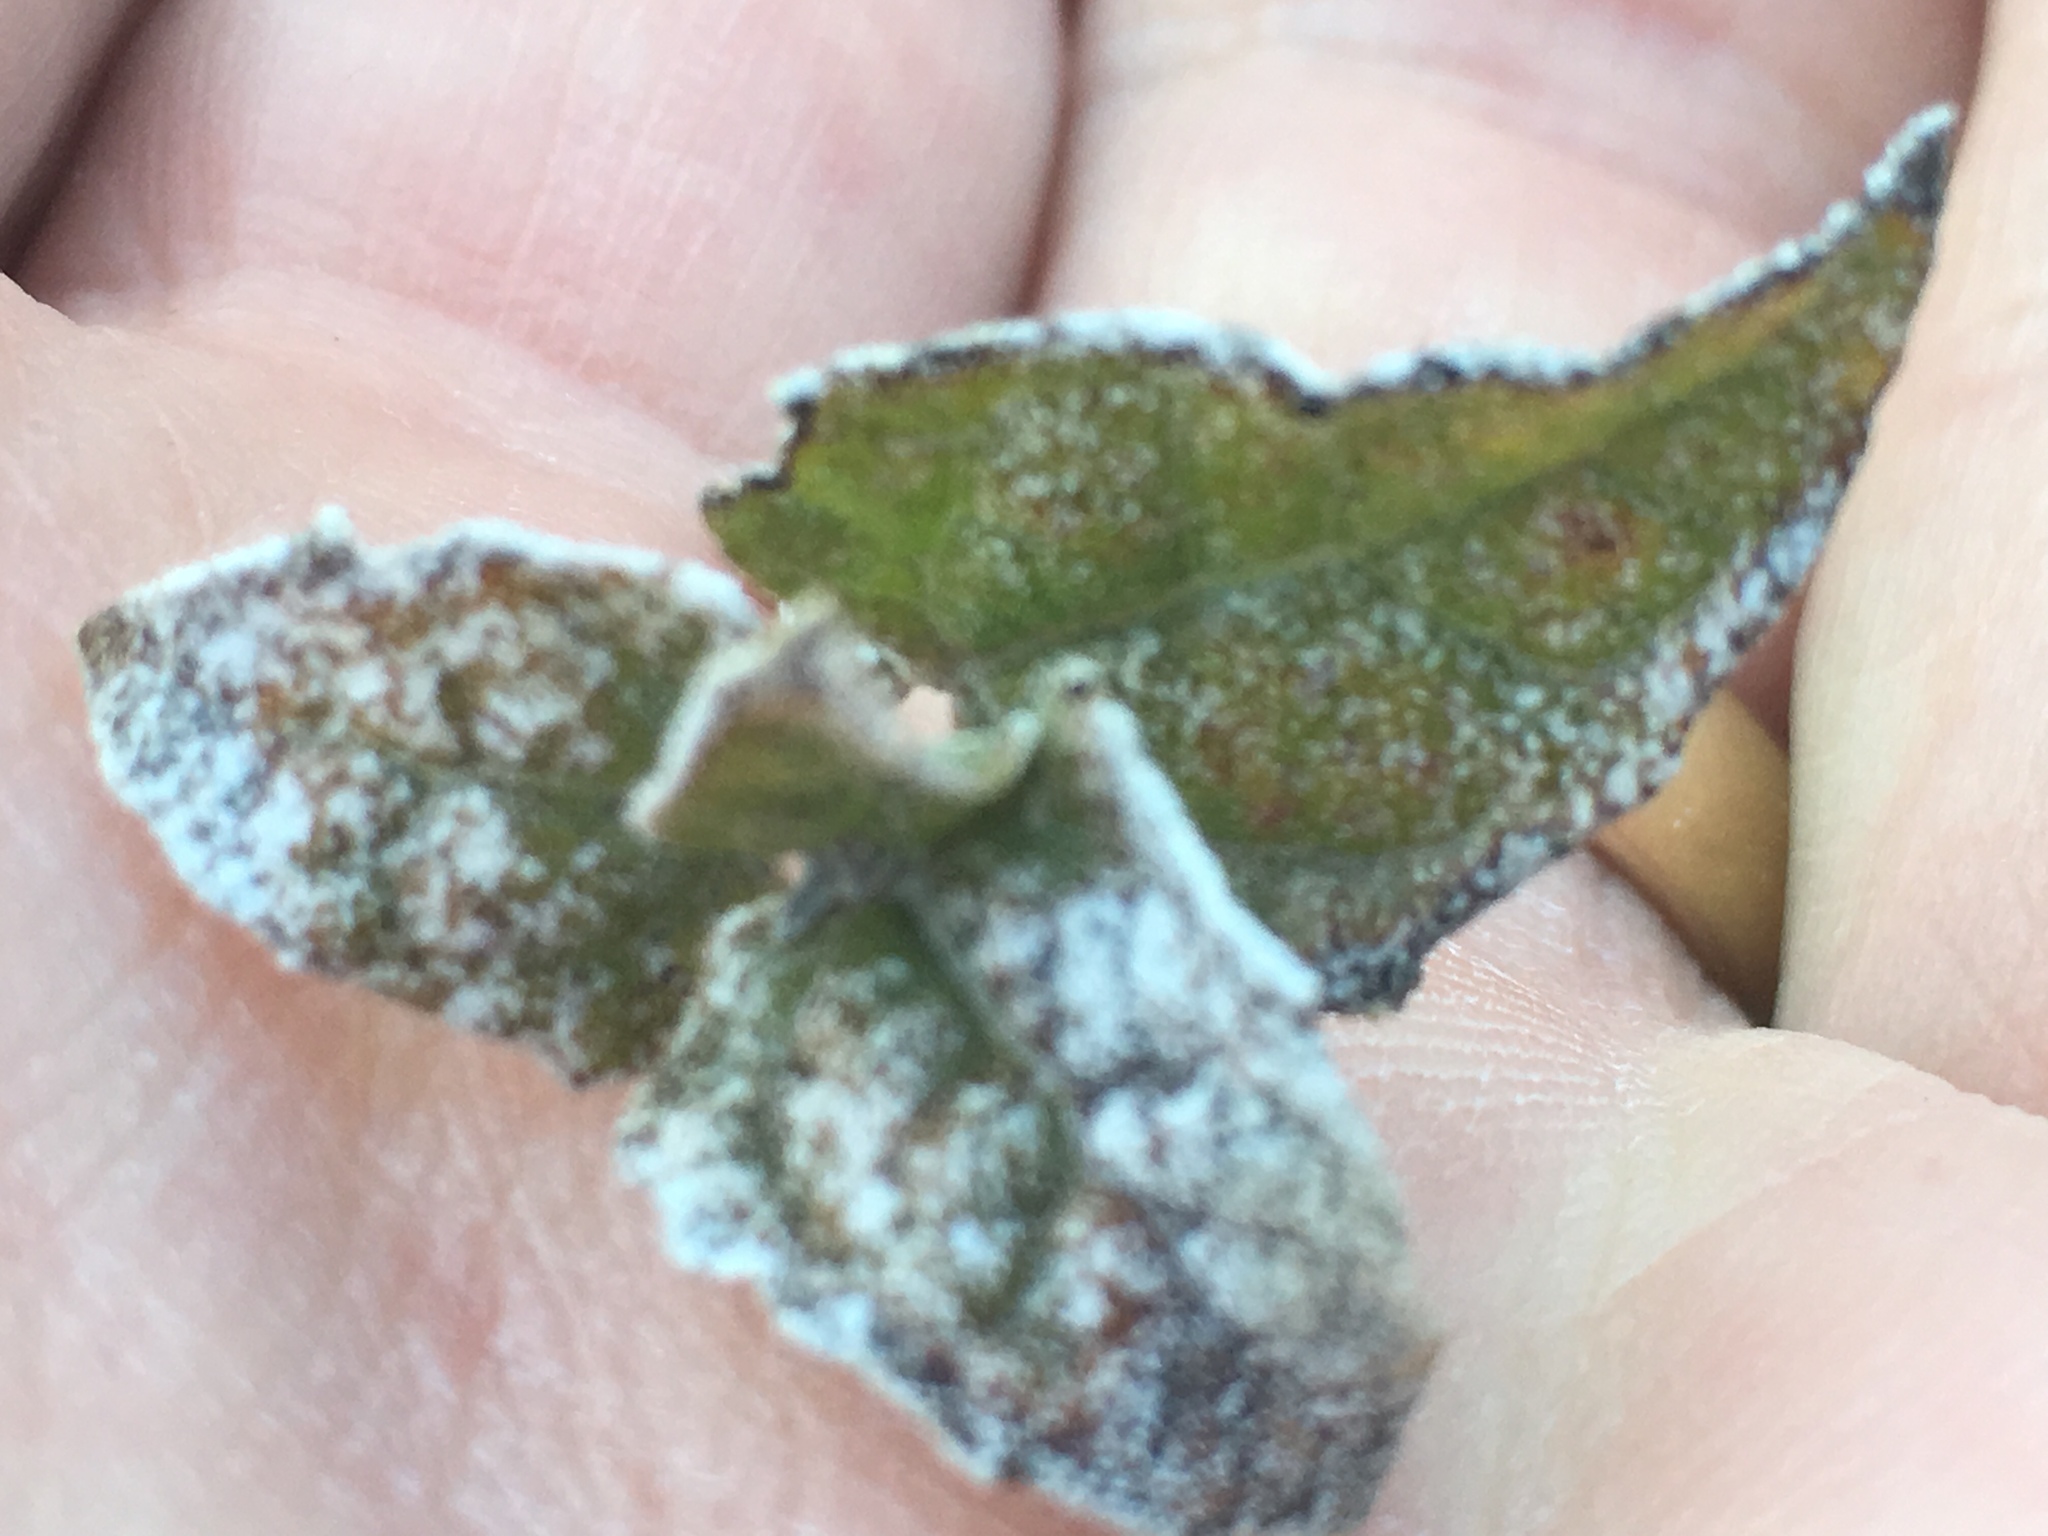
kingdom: Plantae
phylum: Tracheophyta
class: Magnoliopsida
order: Asterales
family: Asteraceae
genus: Bahiopsis
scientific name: Bahiopsis parishii
